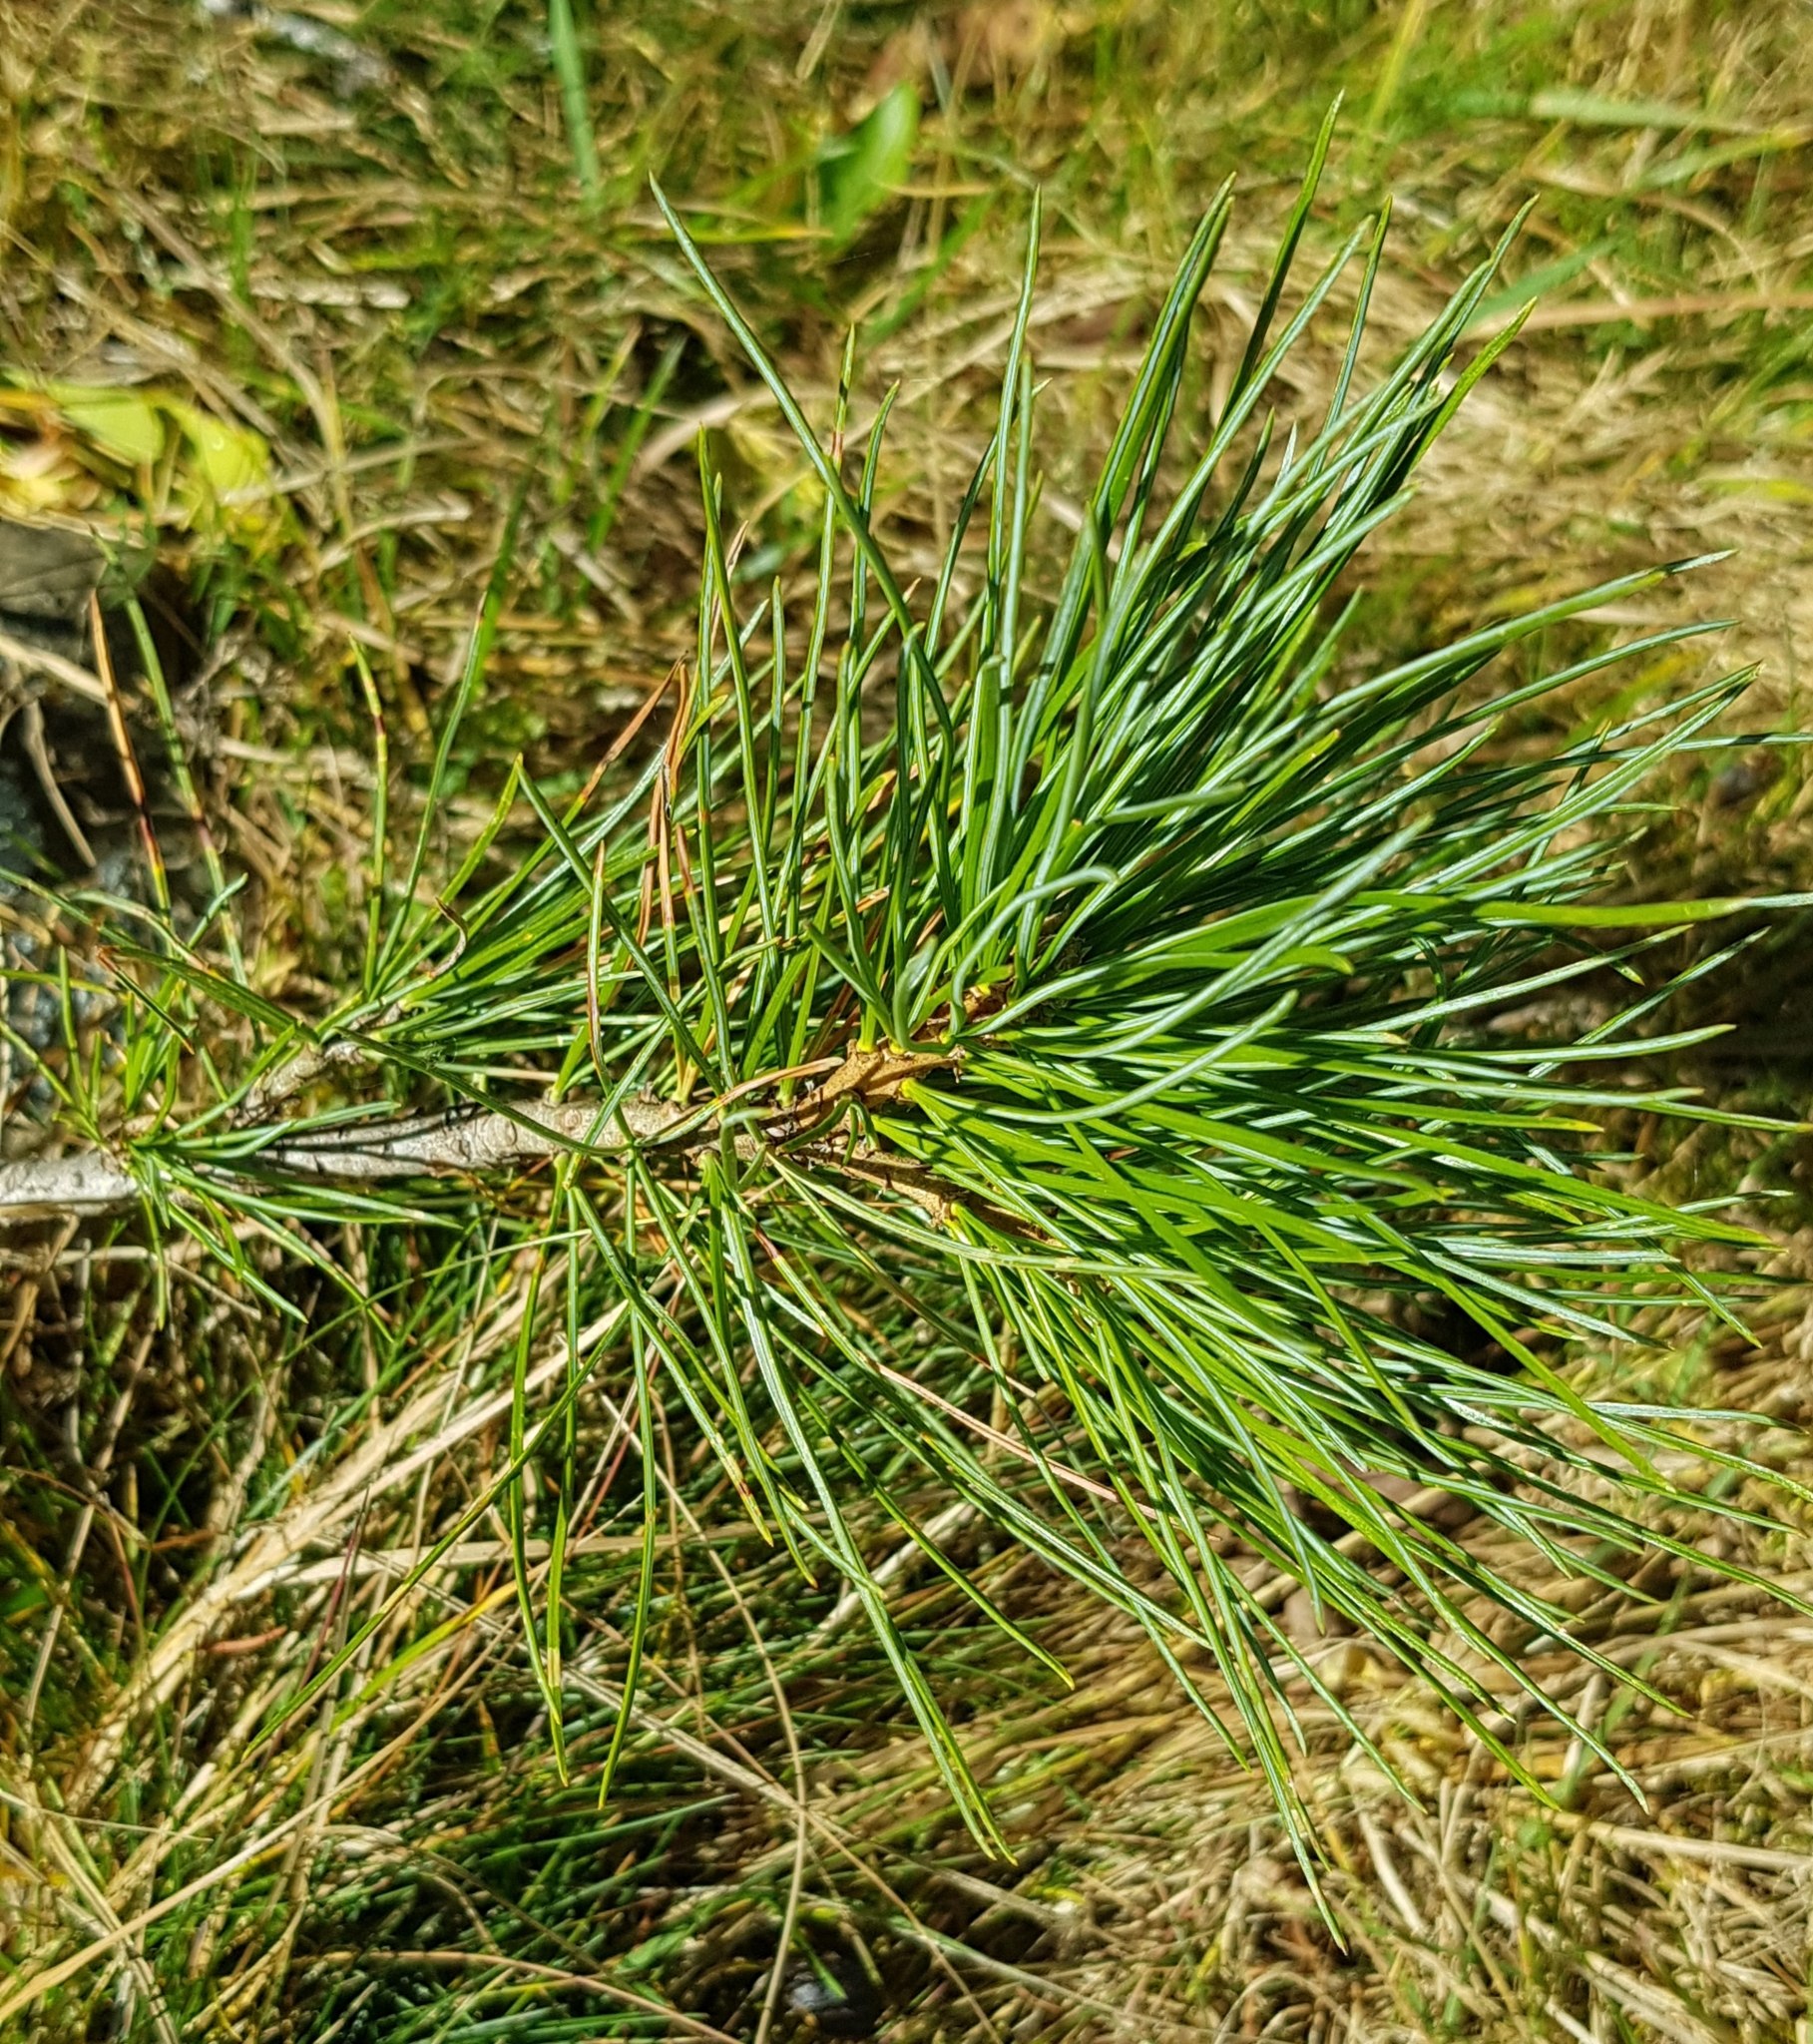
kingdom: Plantae
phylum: Tracheophyta
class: Pinopsida
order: Pinales
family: Pinaceae
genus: Pinus
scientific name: Pinus sibirica
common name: Siberian pine
